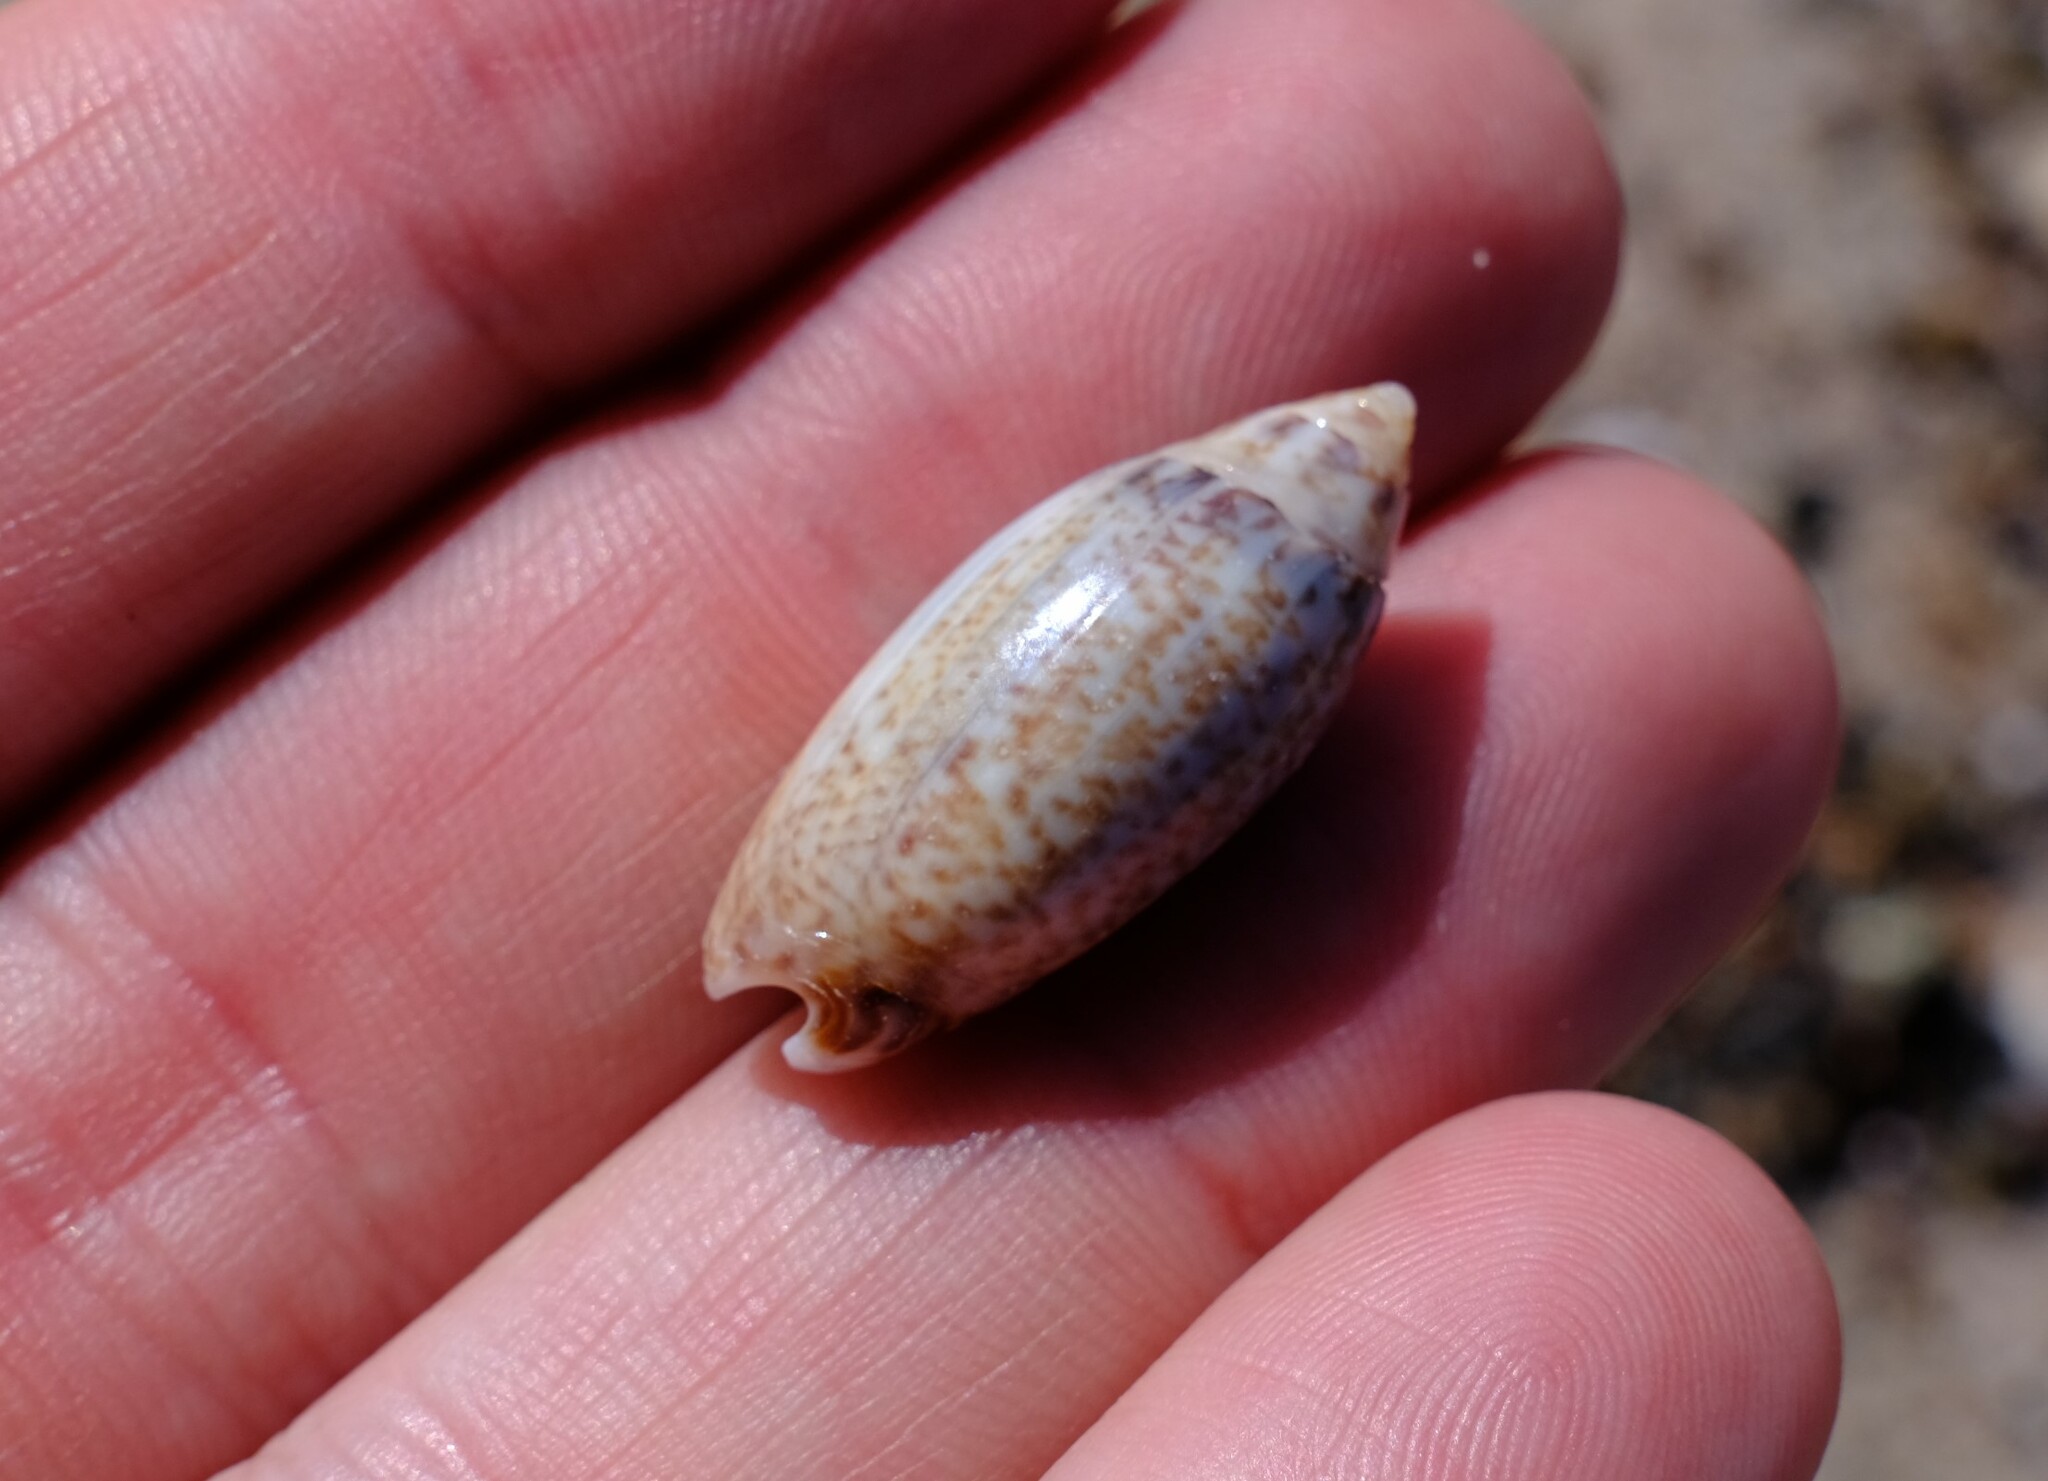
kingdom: Animalia
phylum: Mollusca
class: Gastropoda
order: Neogastropoda
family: Olividae
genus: Oliva
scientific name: Oliva australis
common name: Australian olive
